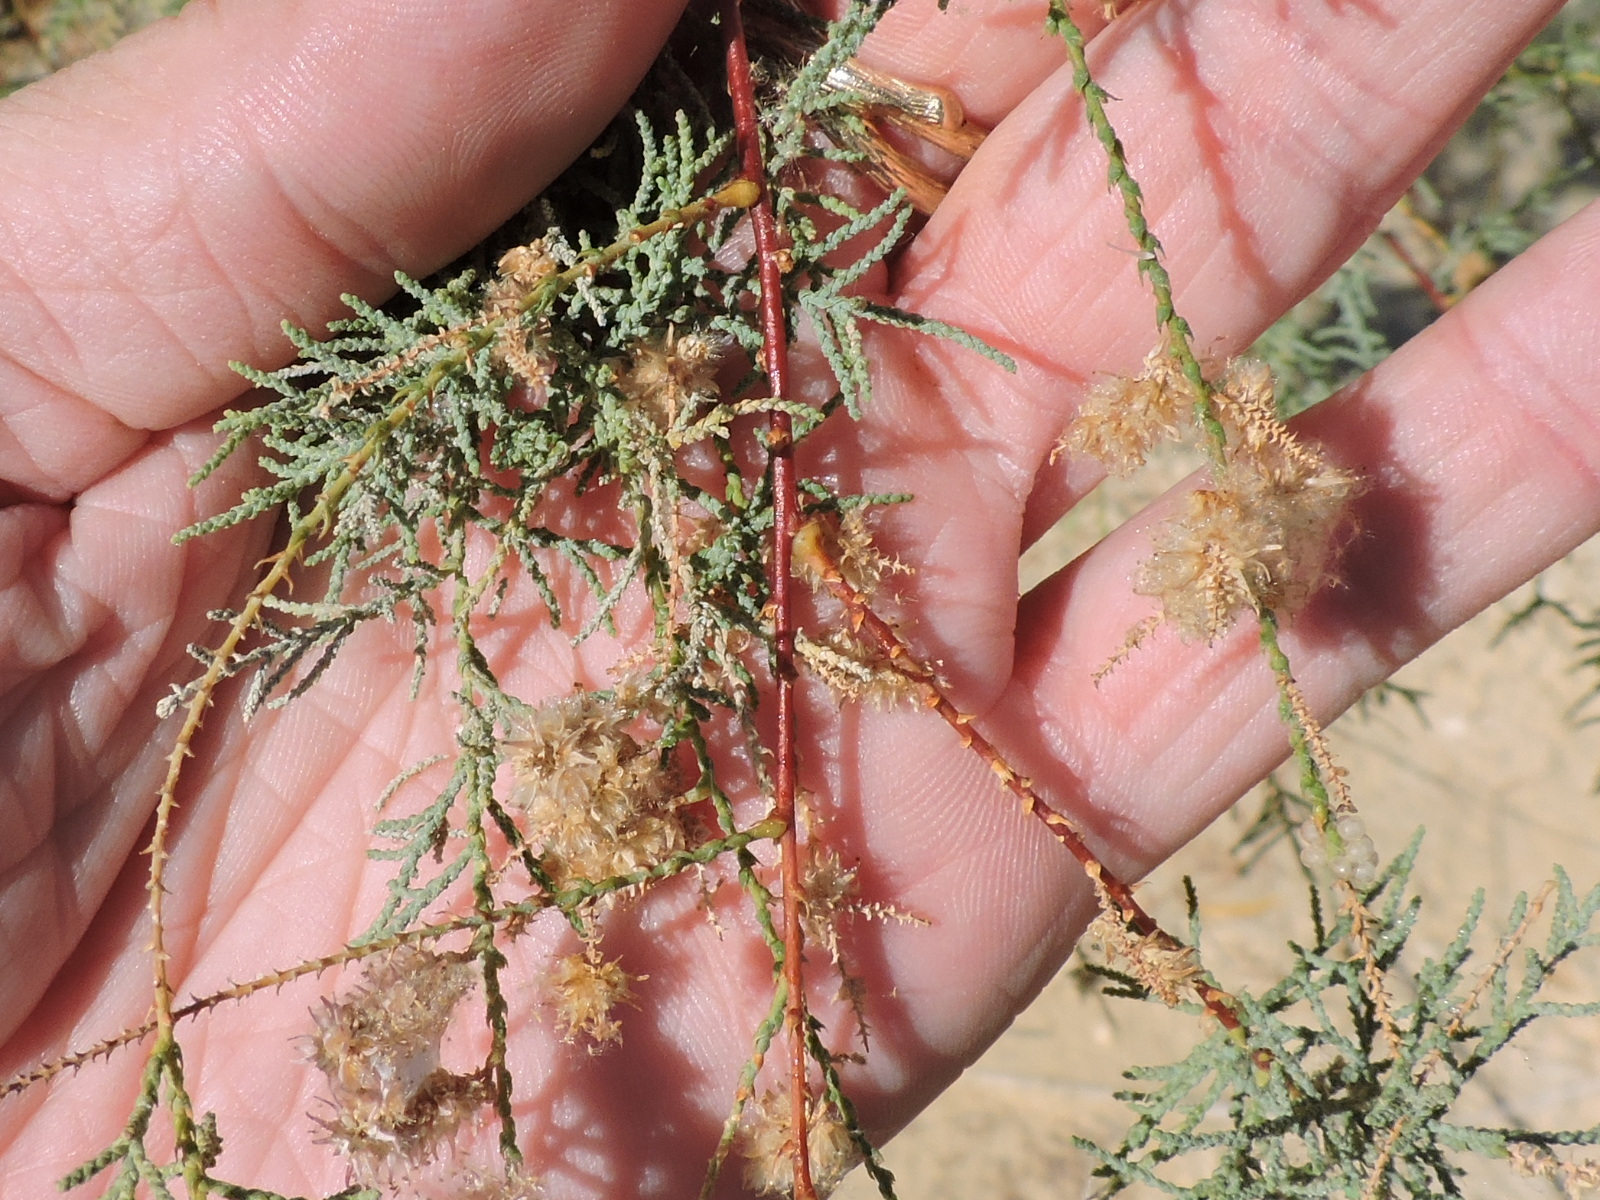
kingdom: Plantae
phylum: Tracheophyta
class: Magnoliopsida
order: Caryophyllales
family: Tamaricaceae
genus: Tamarix
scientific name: Tamarix
